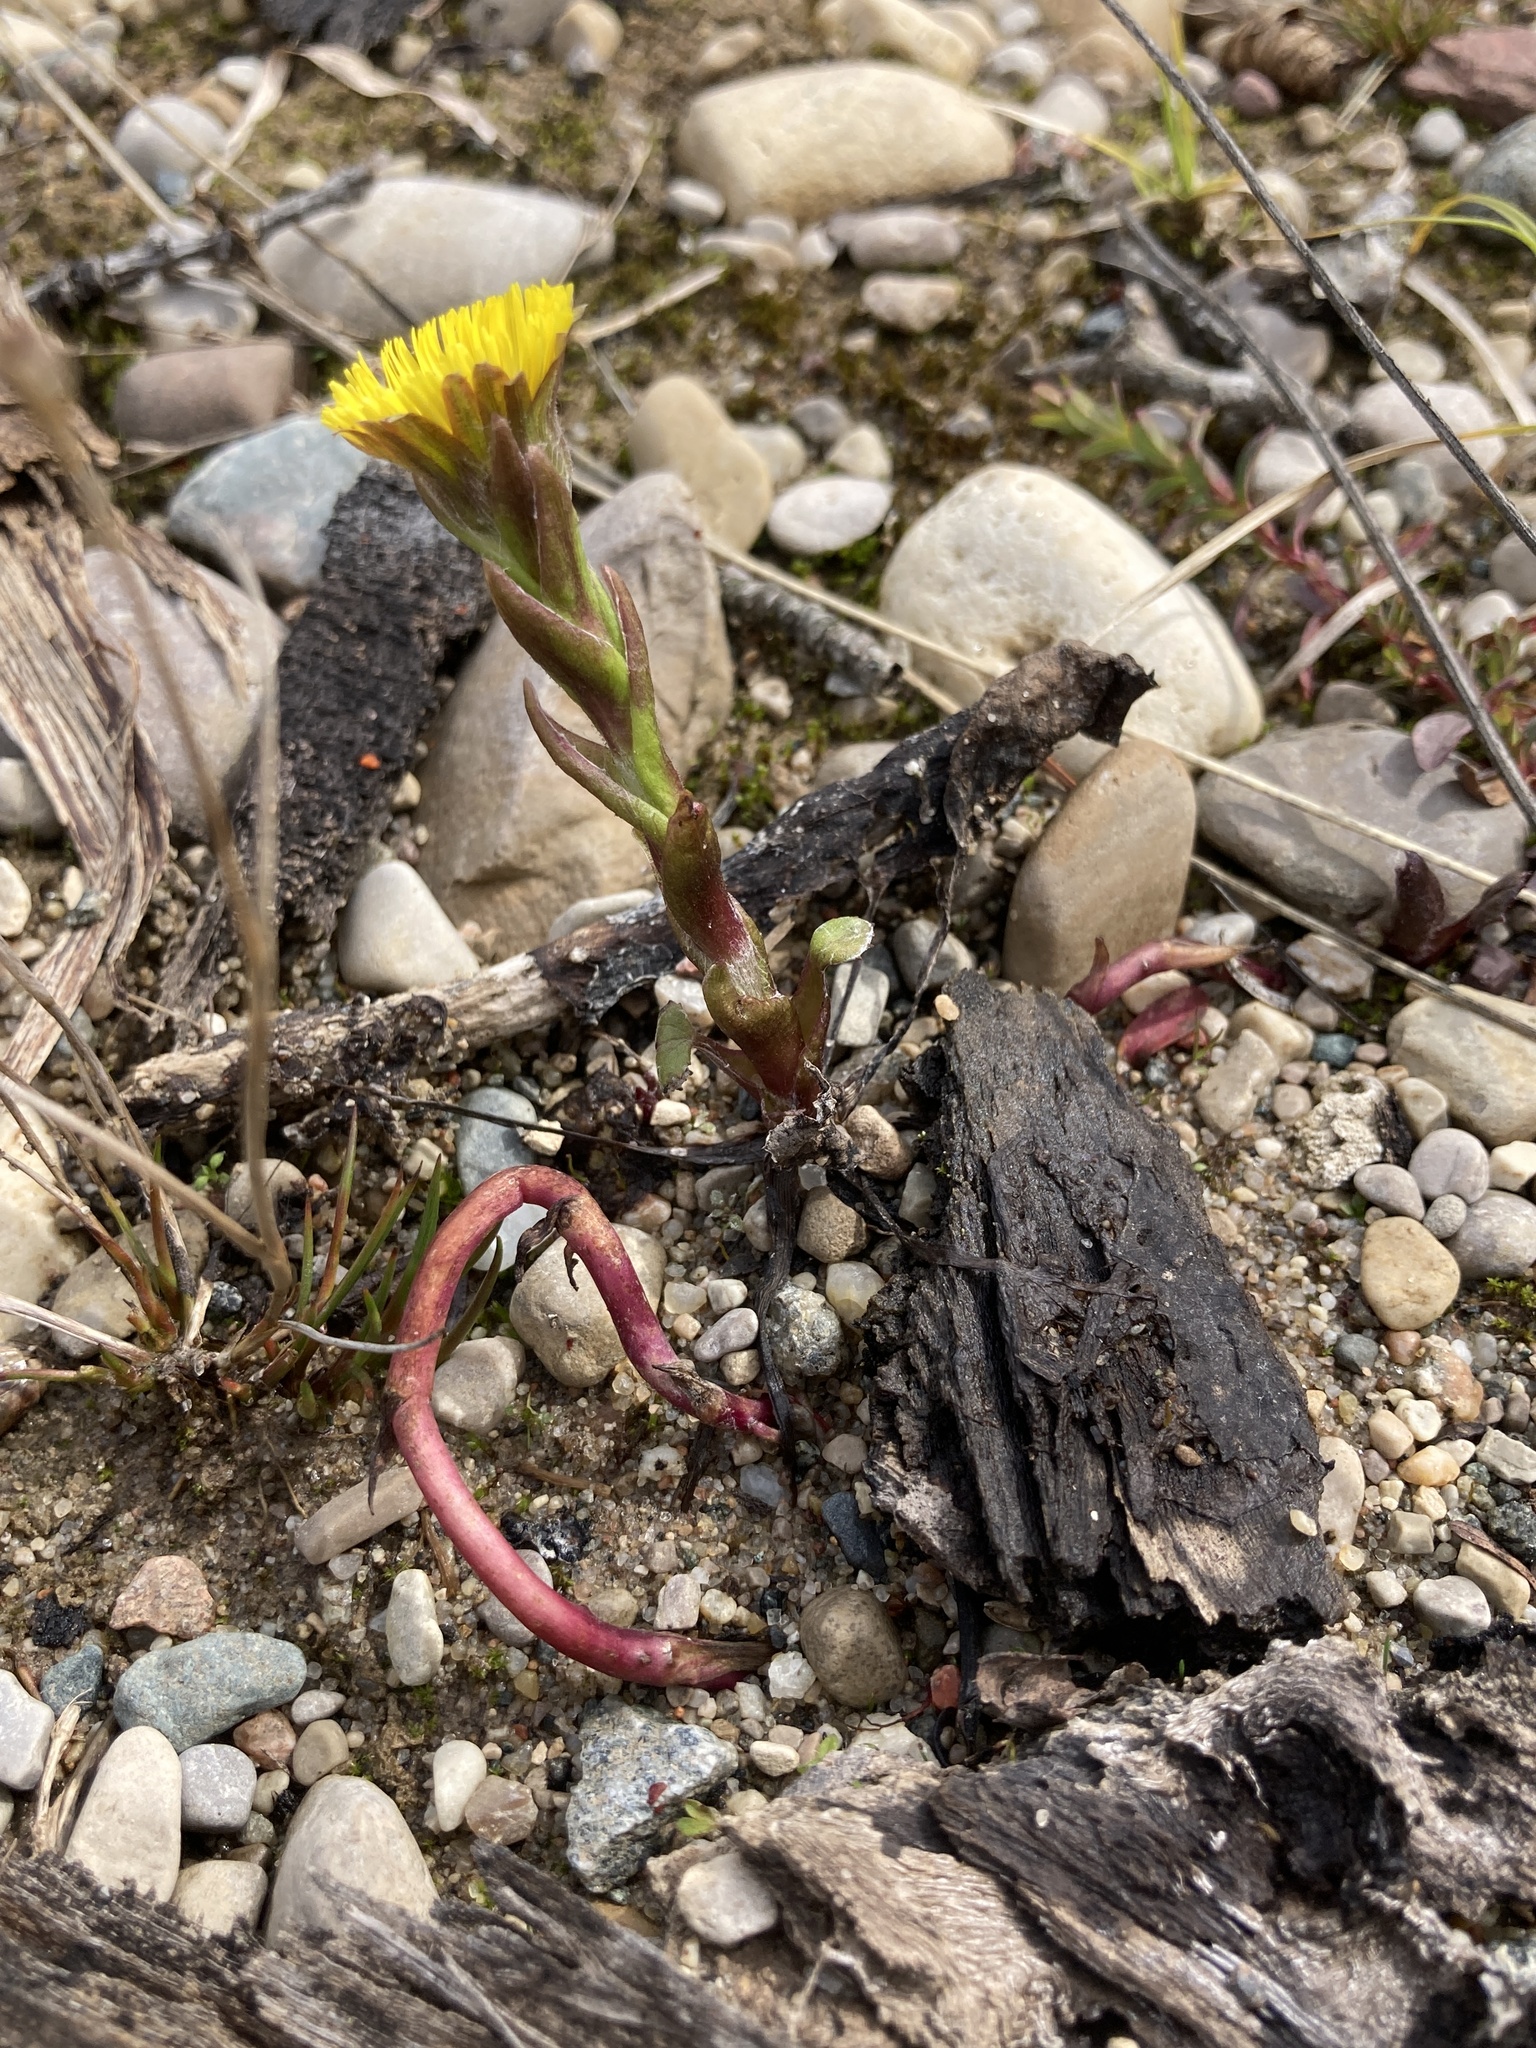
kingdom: Plantae
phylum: Tracheophyta
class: Magnoliopsida
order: Asterales
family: Asteraceae
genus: Tussilago
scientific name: Tussilago farfara
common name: Coltsfoot
